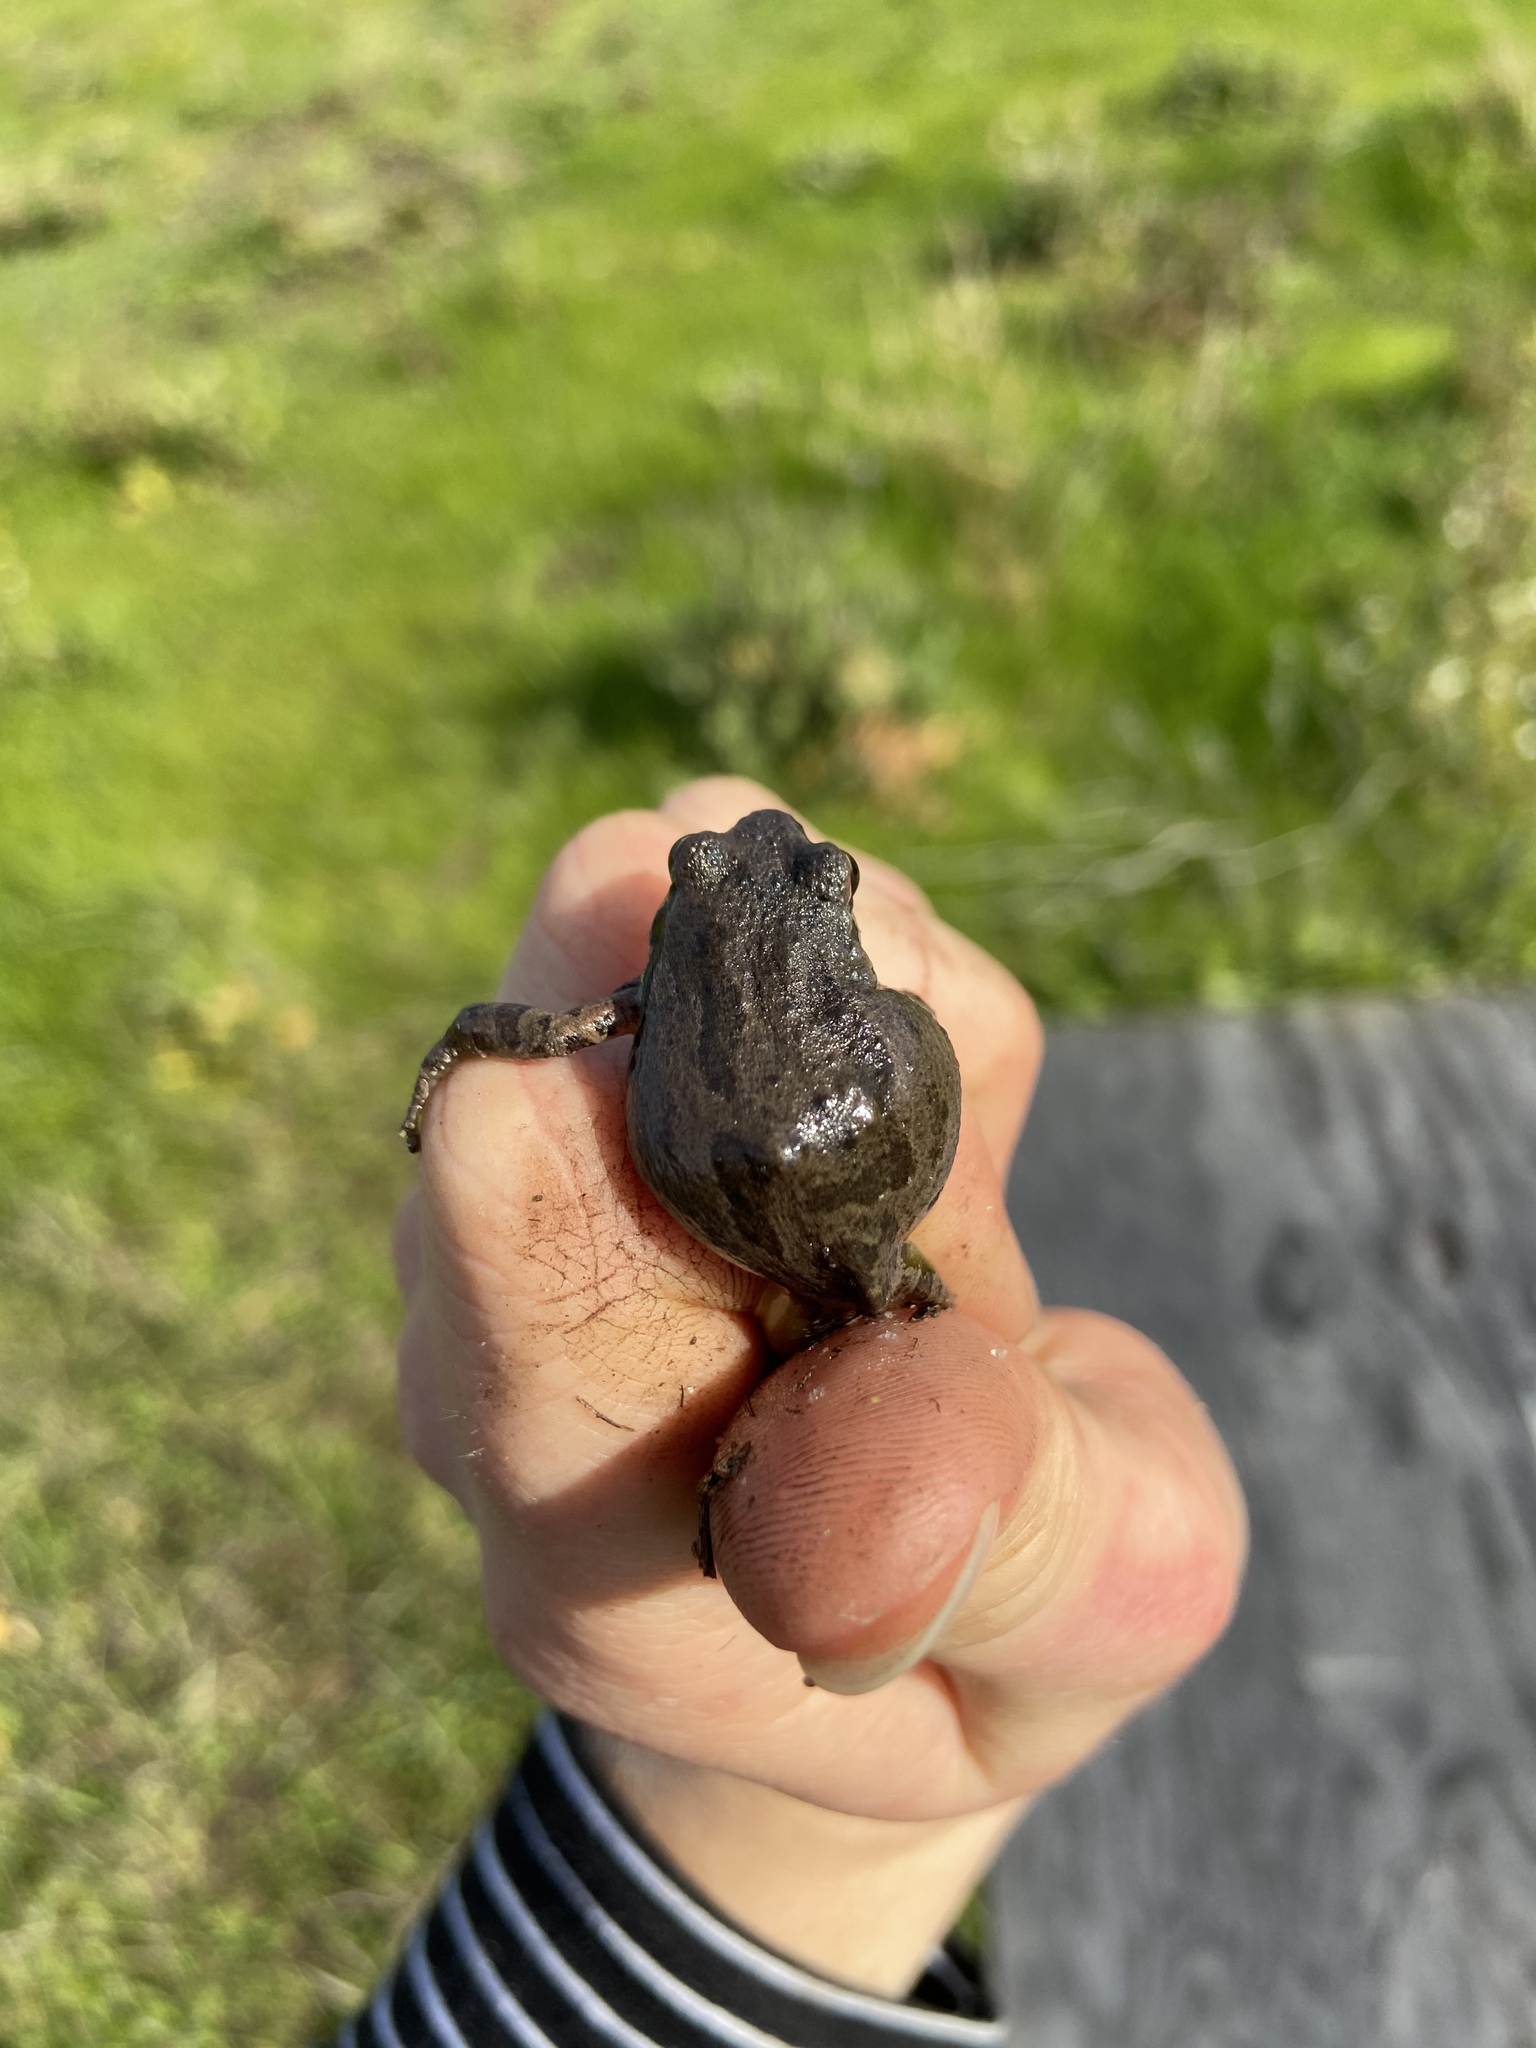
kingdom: Animalia
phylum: Chordata
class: Amphibia
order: Anura
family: Hylidae
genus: Pseudacris
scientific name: Pseudacris regilla
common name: Pacific chorus frog
